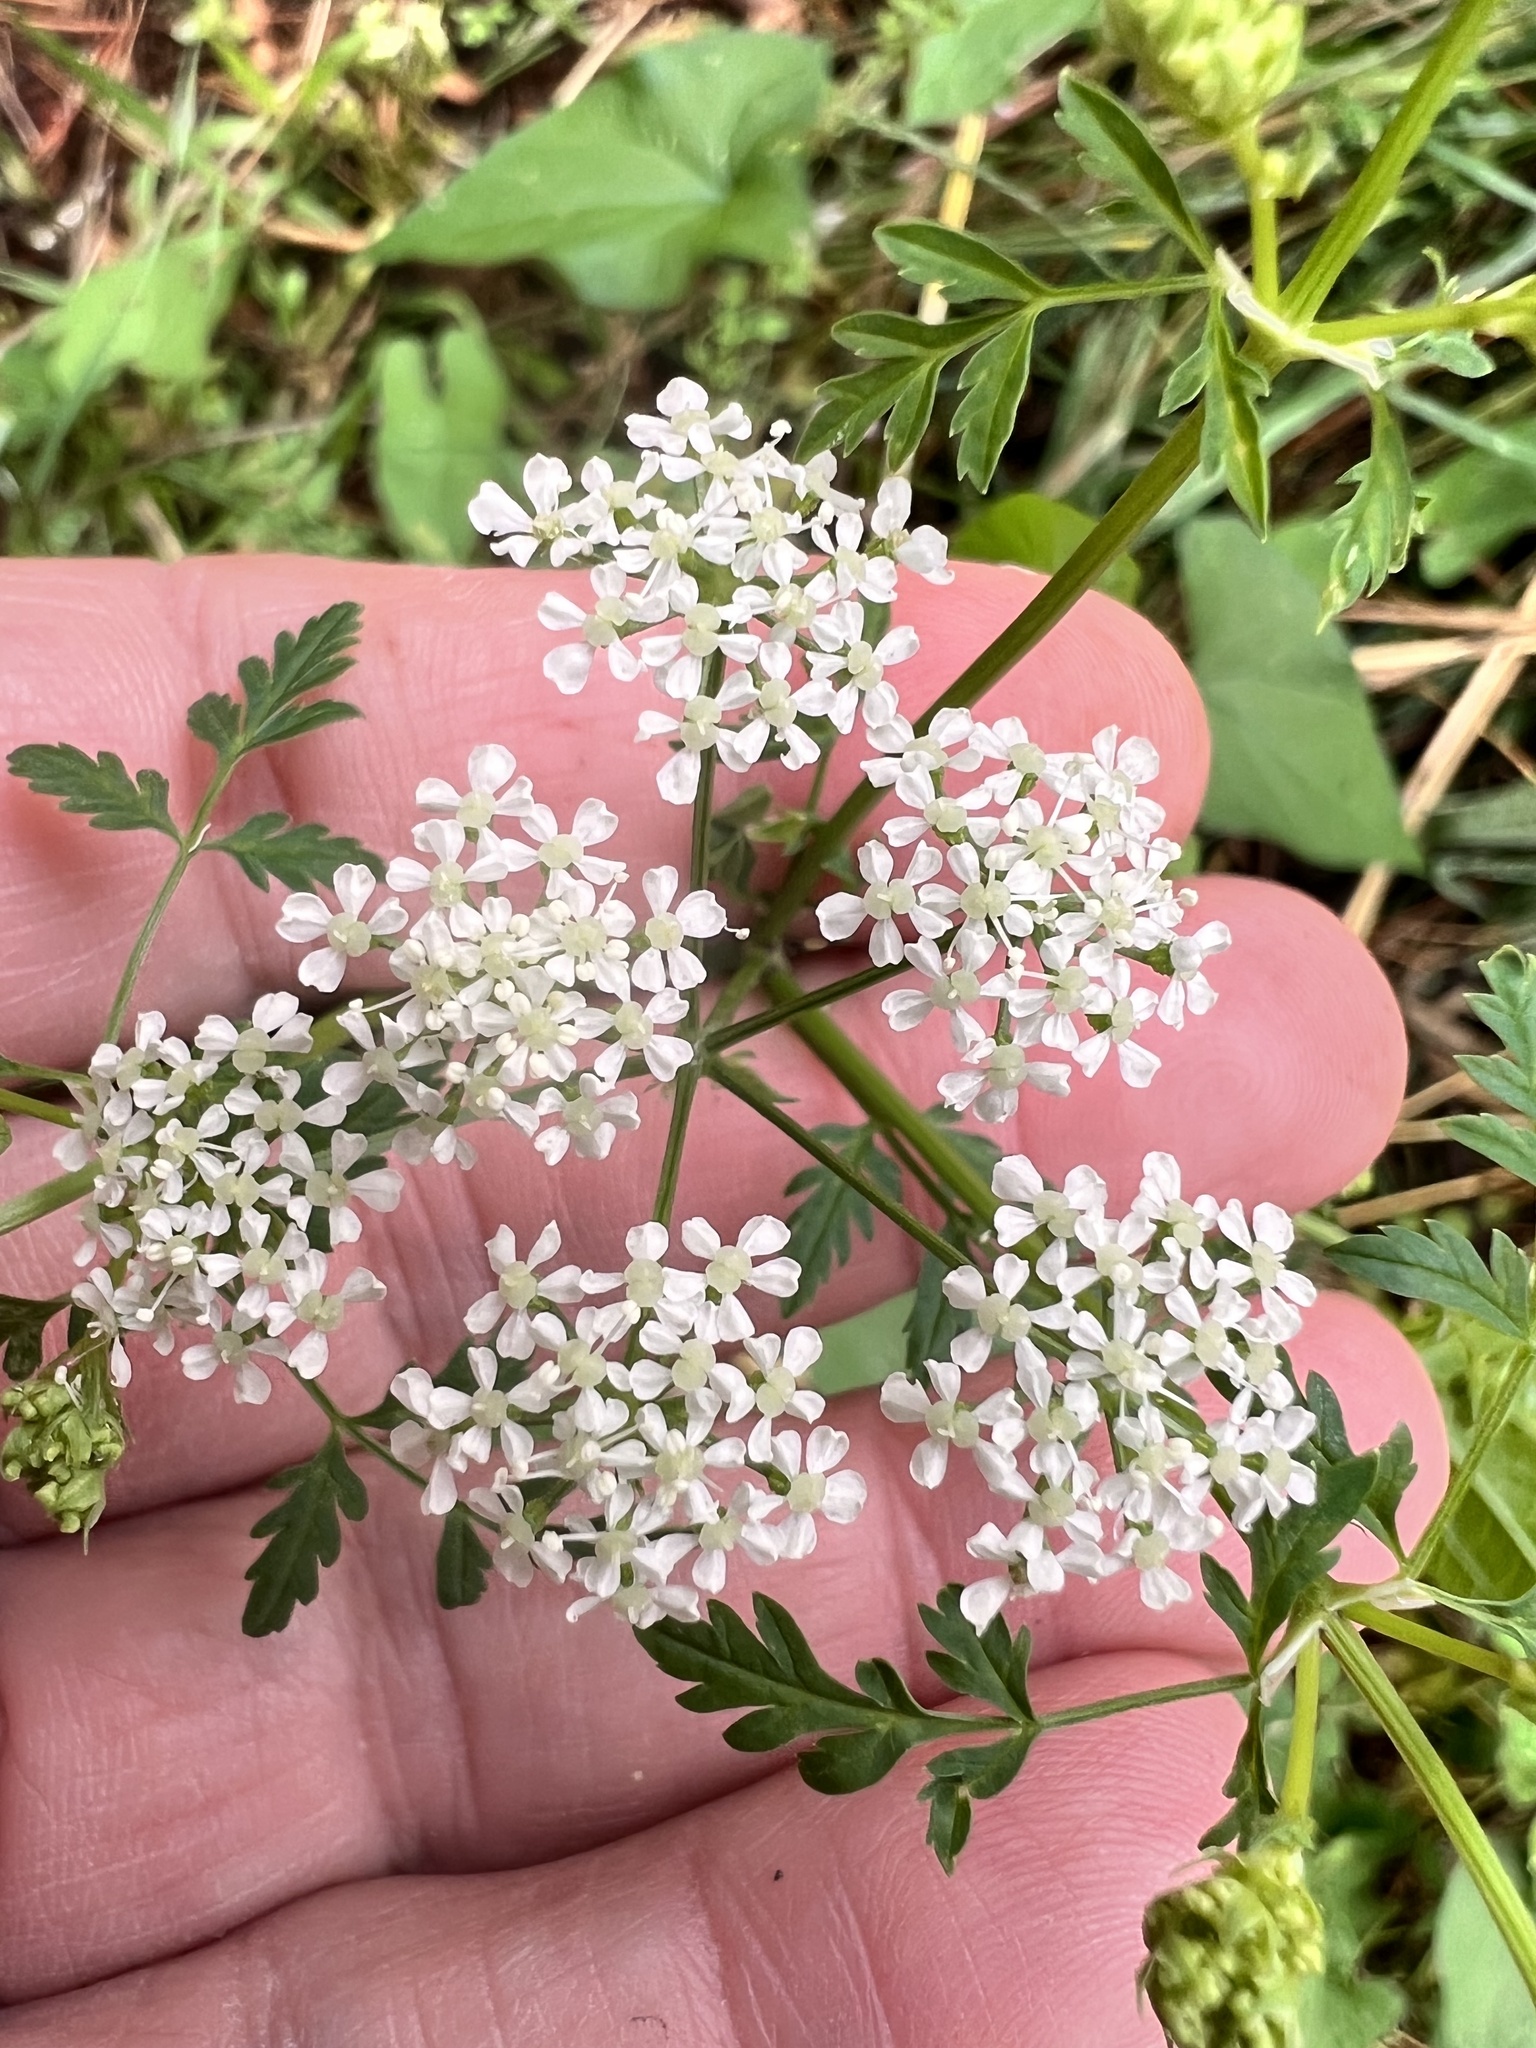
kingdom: Plantae
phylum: Tracheophyta
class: Magnoliopsida
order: Apiales
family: Apiaceae
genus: Conium
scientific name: Conium maculatum
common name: Hemlock
